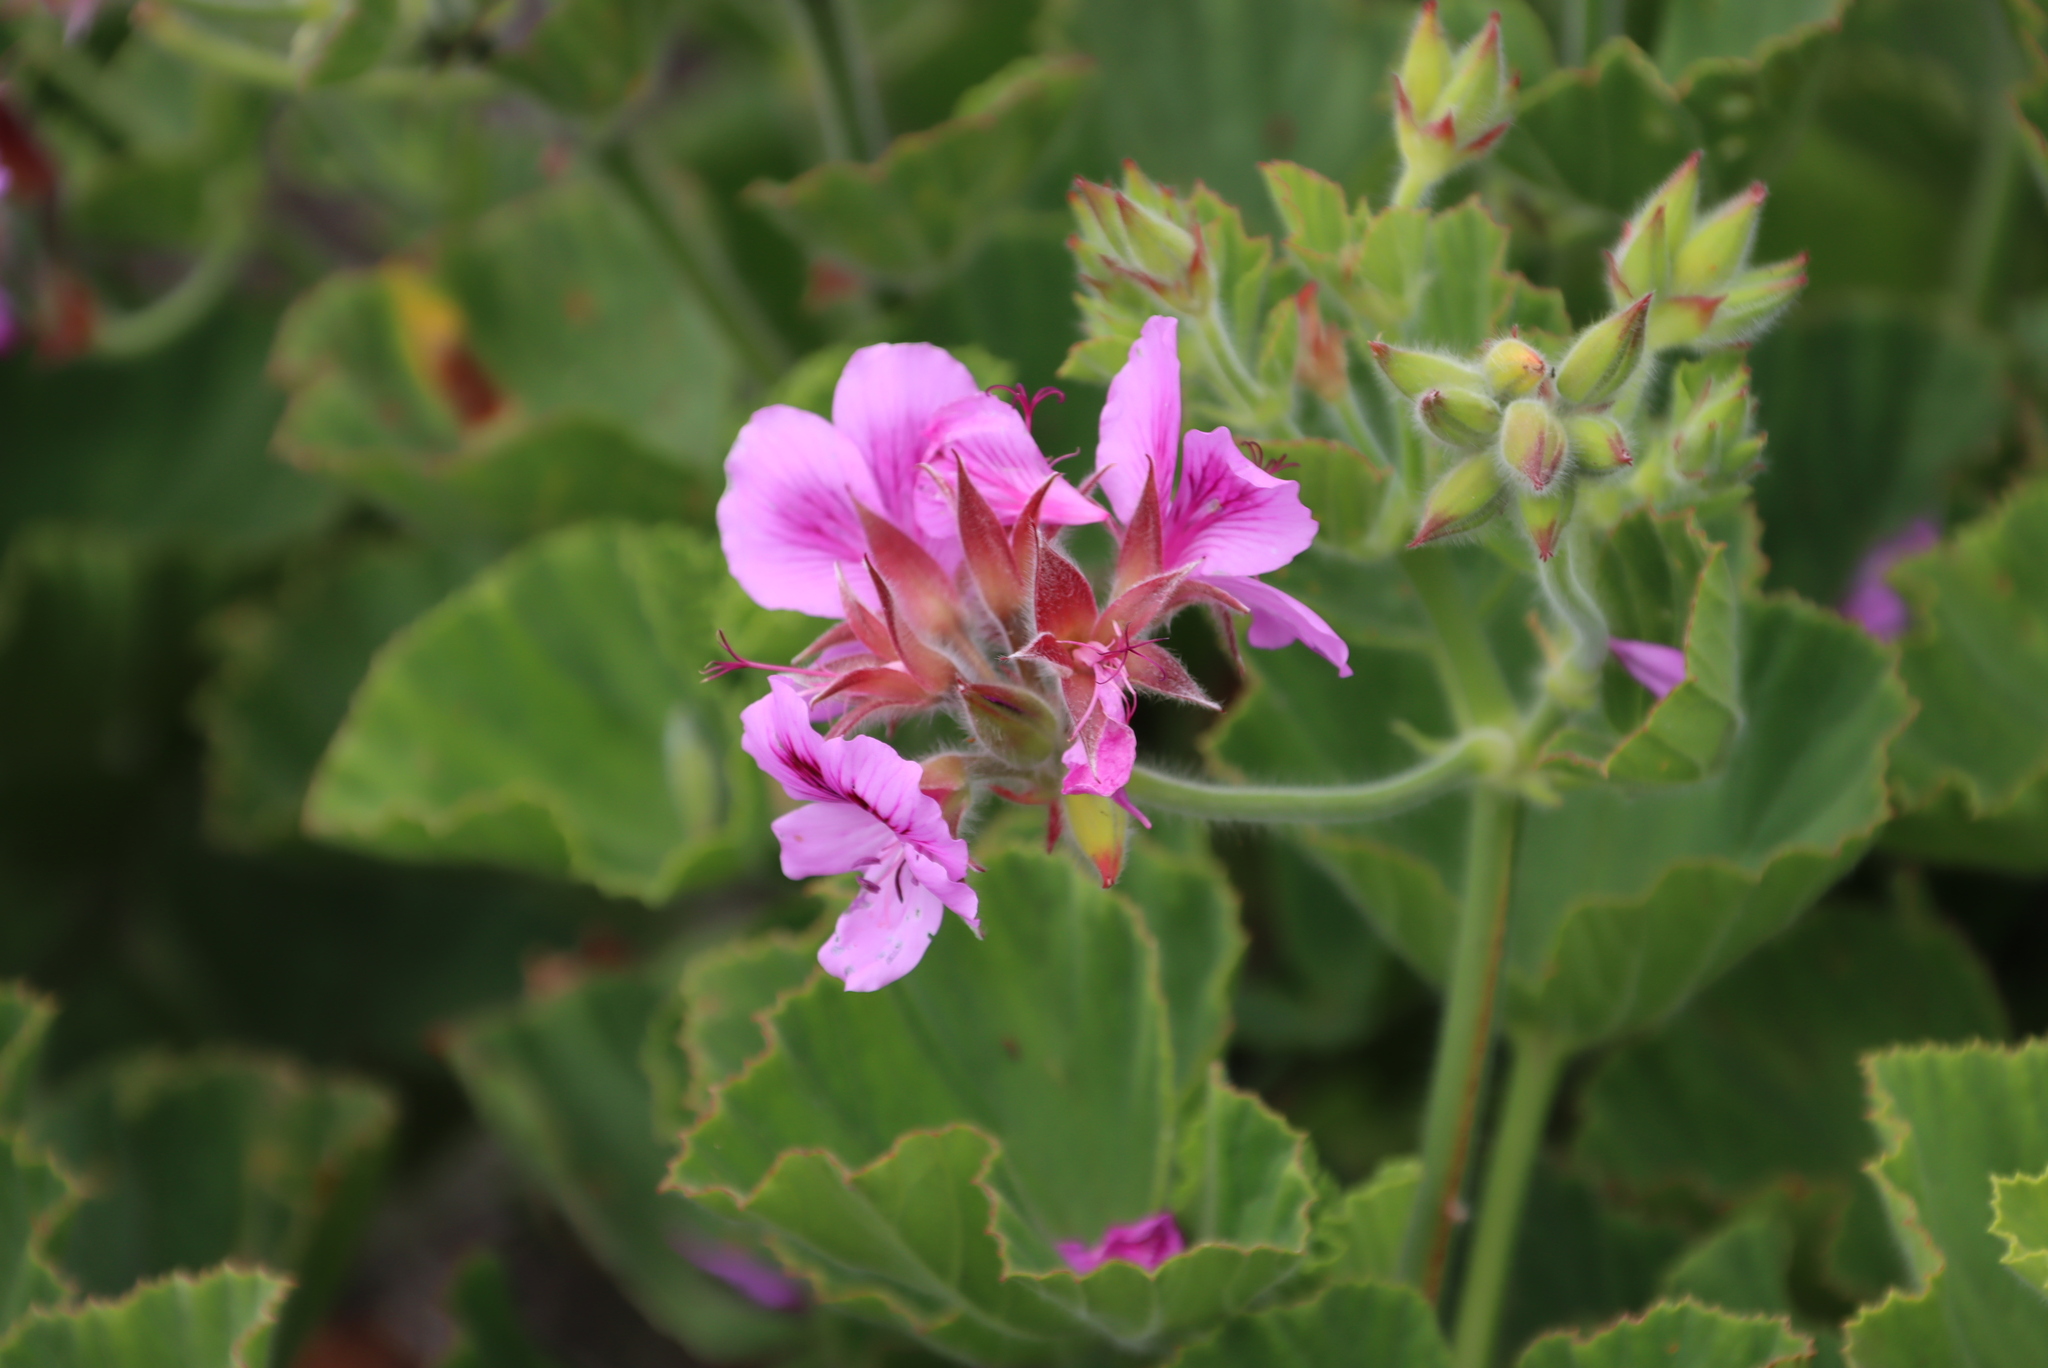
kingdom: Plantae
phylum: Tracheophyta
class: Magnoliopsida
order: Geraniales
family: Geraniaceae
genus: Pelargonium
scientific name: Pelargonium cucullatum
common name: Tree pelargonium
